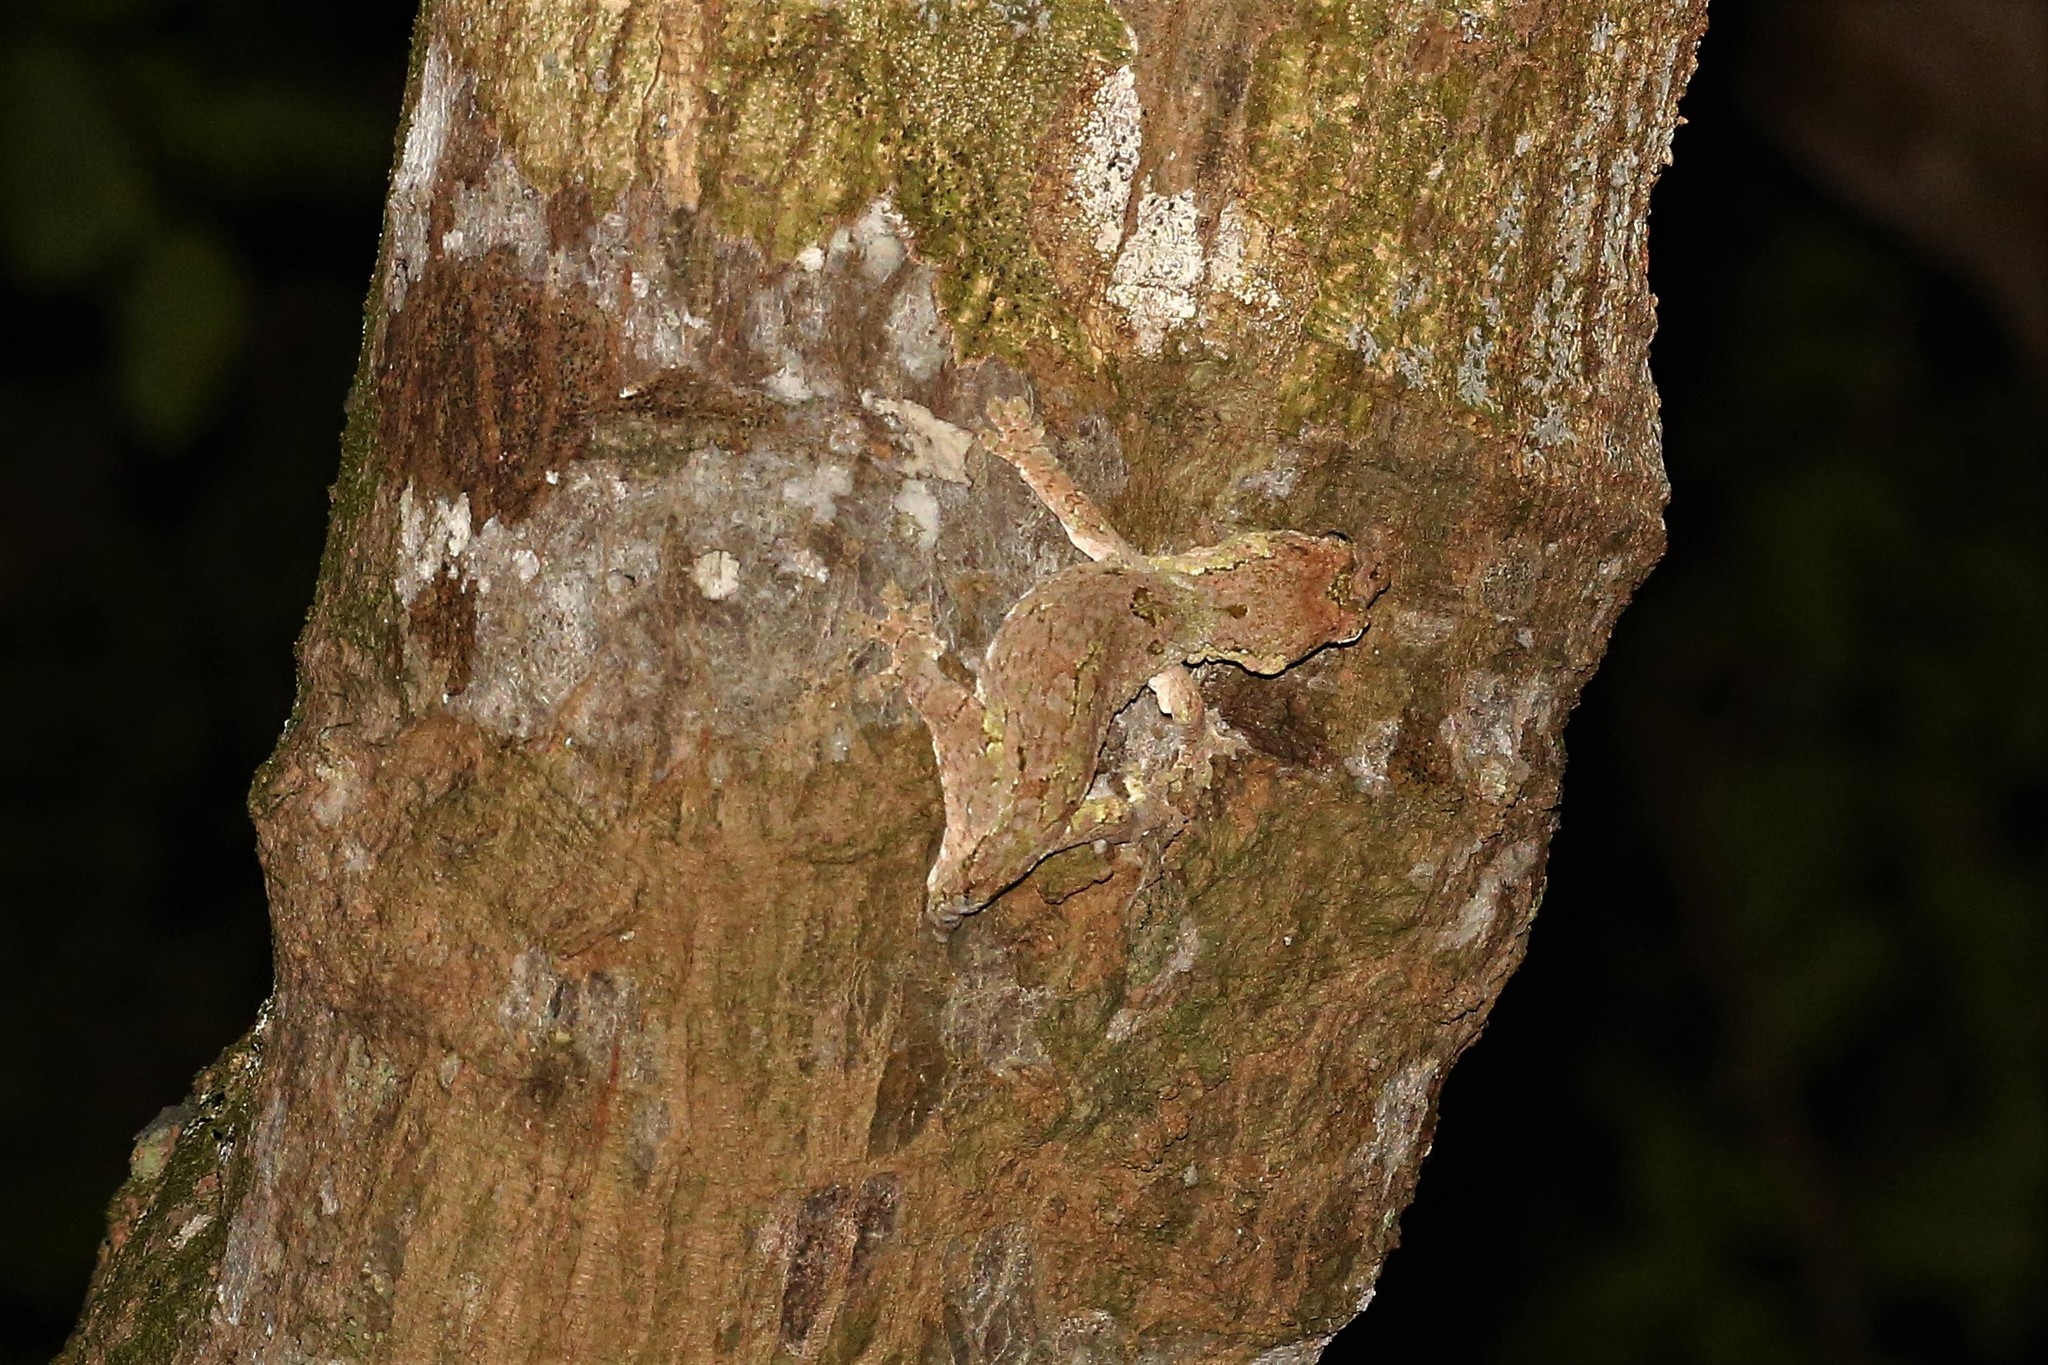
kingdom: Animalia
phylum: Chordata
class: Squamata
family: Diplodactylidae
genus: Mniarogekko
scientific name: Mniarogekko chahoua
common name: Bavay's giant gecko
